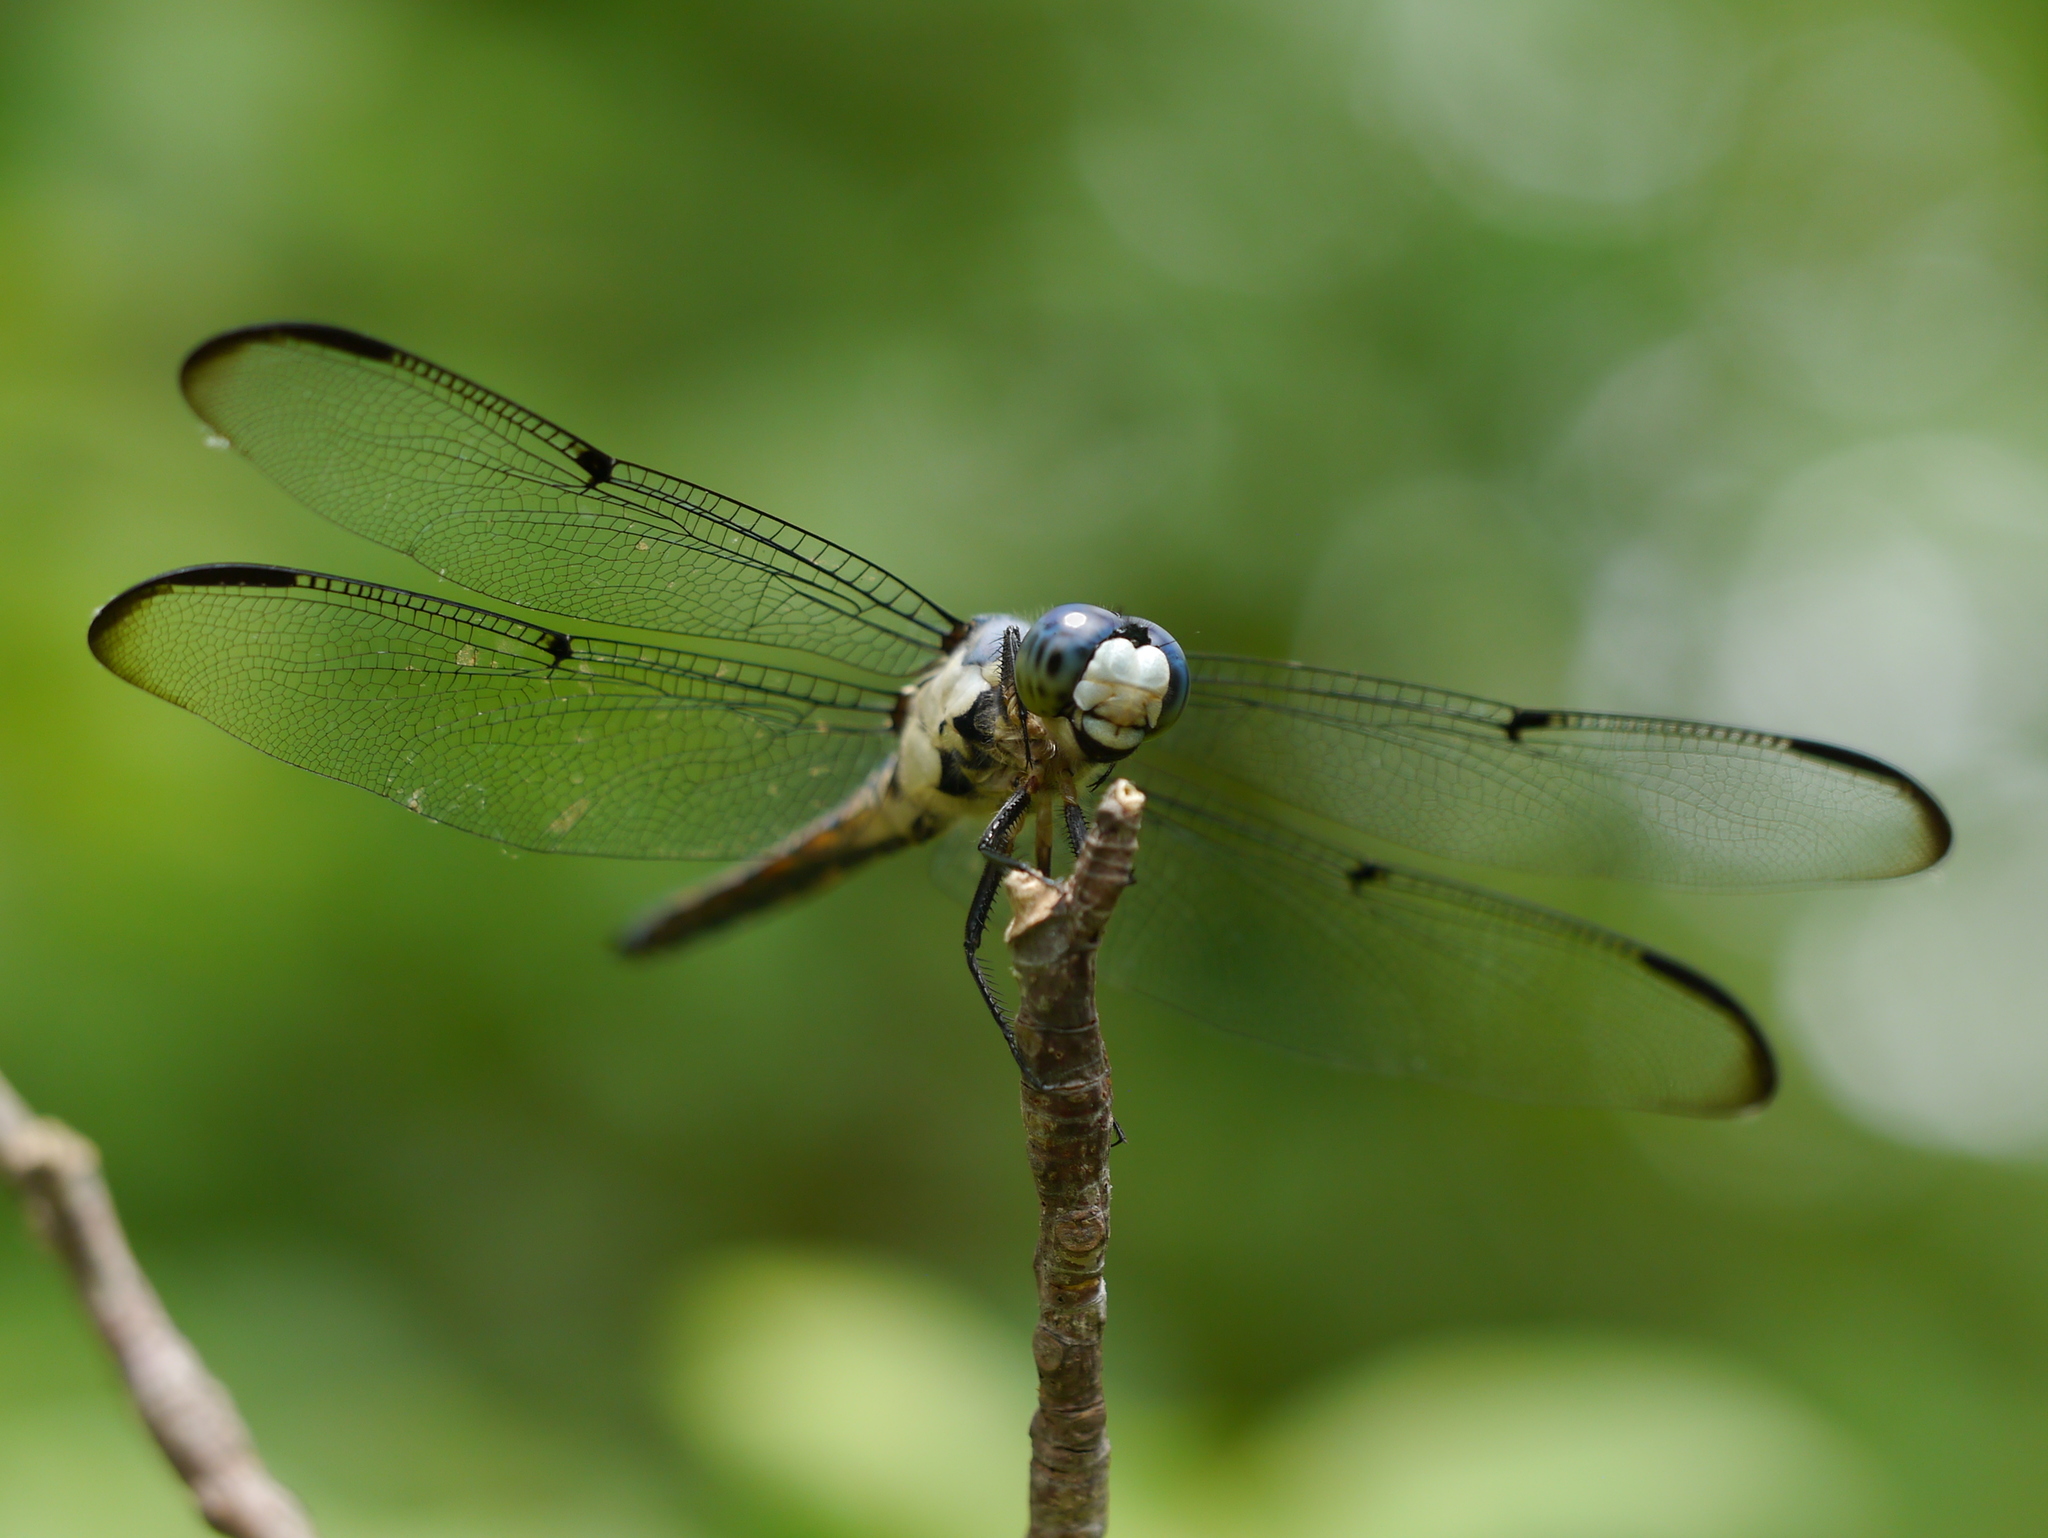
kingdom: Animalia
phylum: Arthropoda
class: Insecta
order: Odonata
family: Libellulidae
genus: Libellula
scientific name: Libellula vibrans
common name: Great blue skimmer
